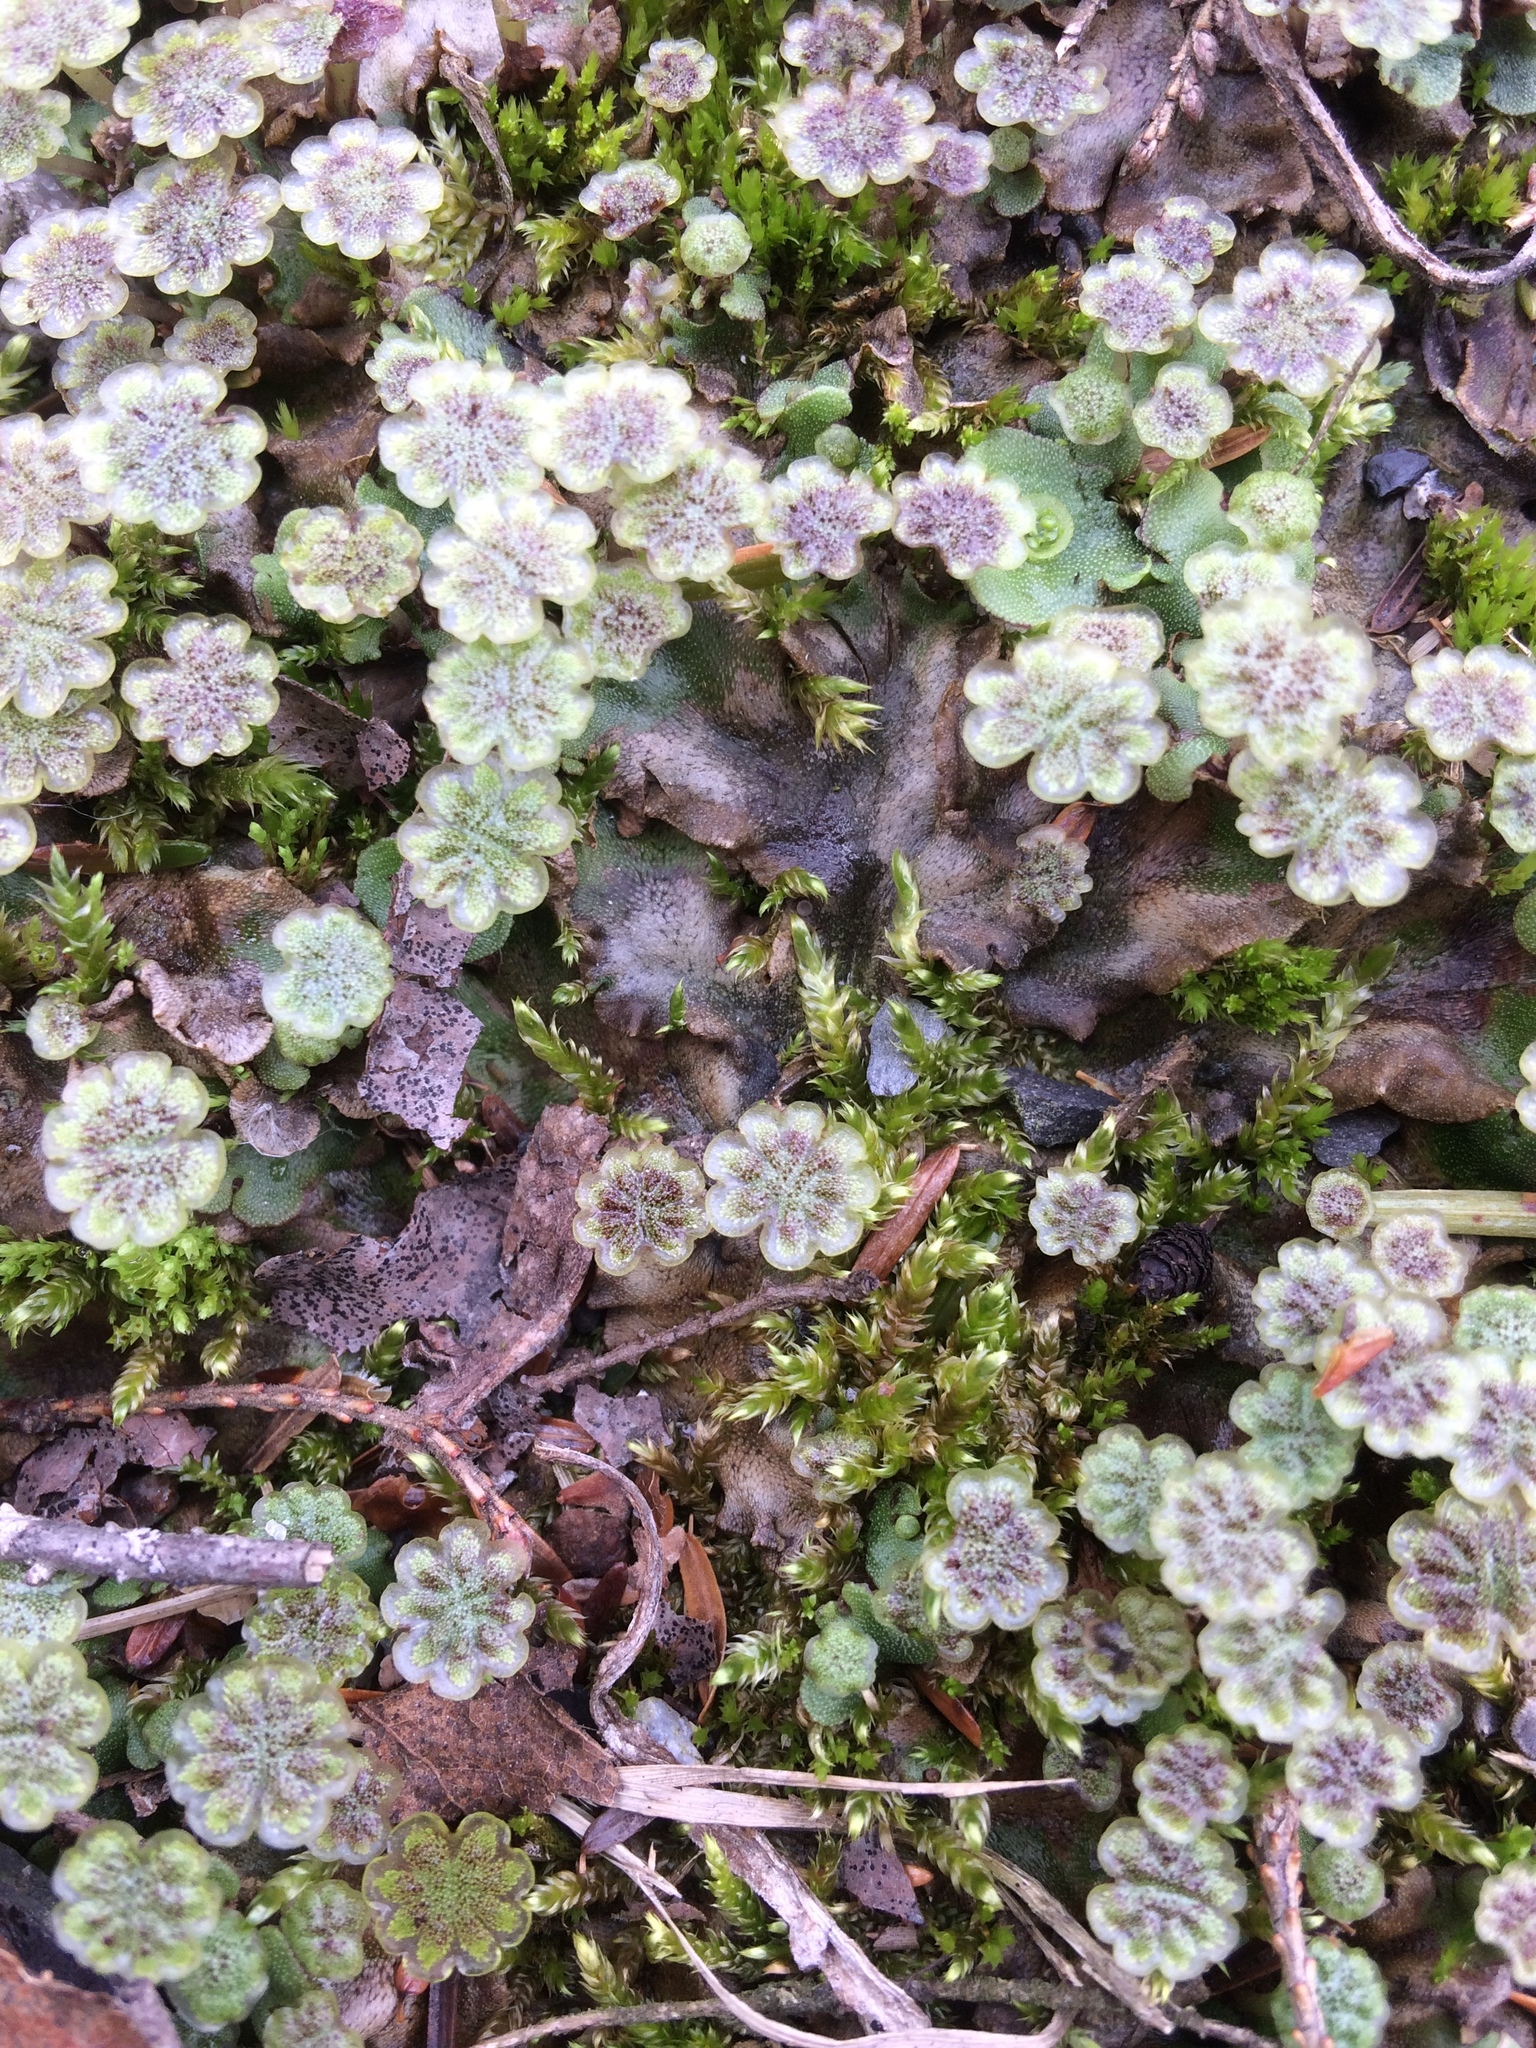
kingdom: Plantae
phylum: Marchantiophyta
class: Marchantiopsida
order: Marchantiales
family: Marchantiaceae
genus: Marchantia
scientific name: Marchantia polymorpha
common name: Common liverwort
